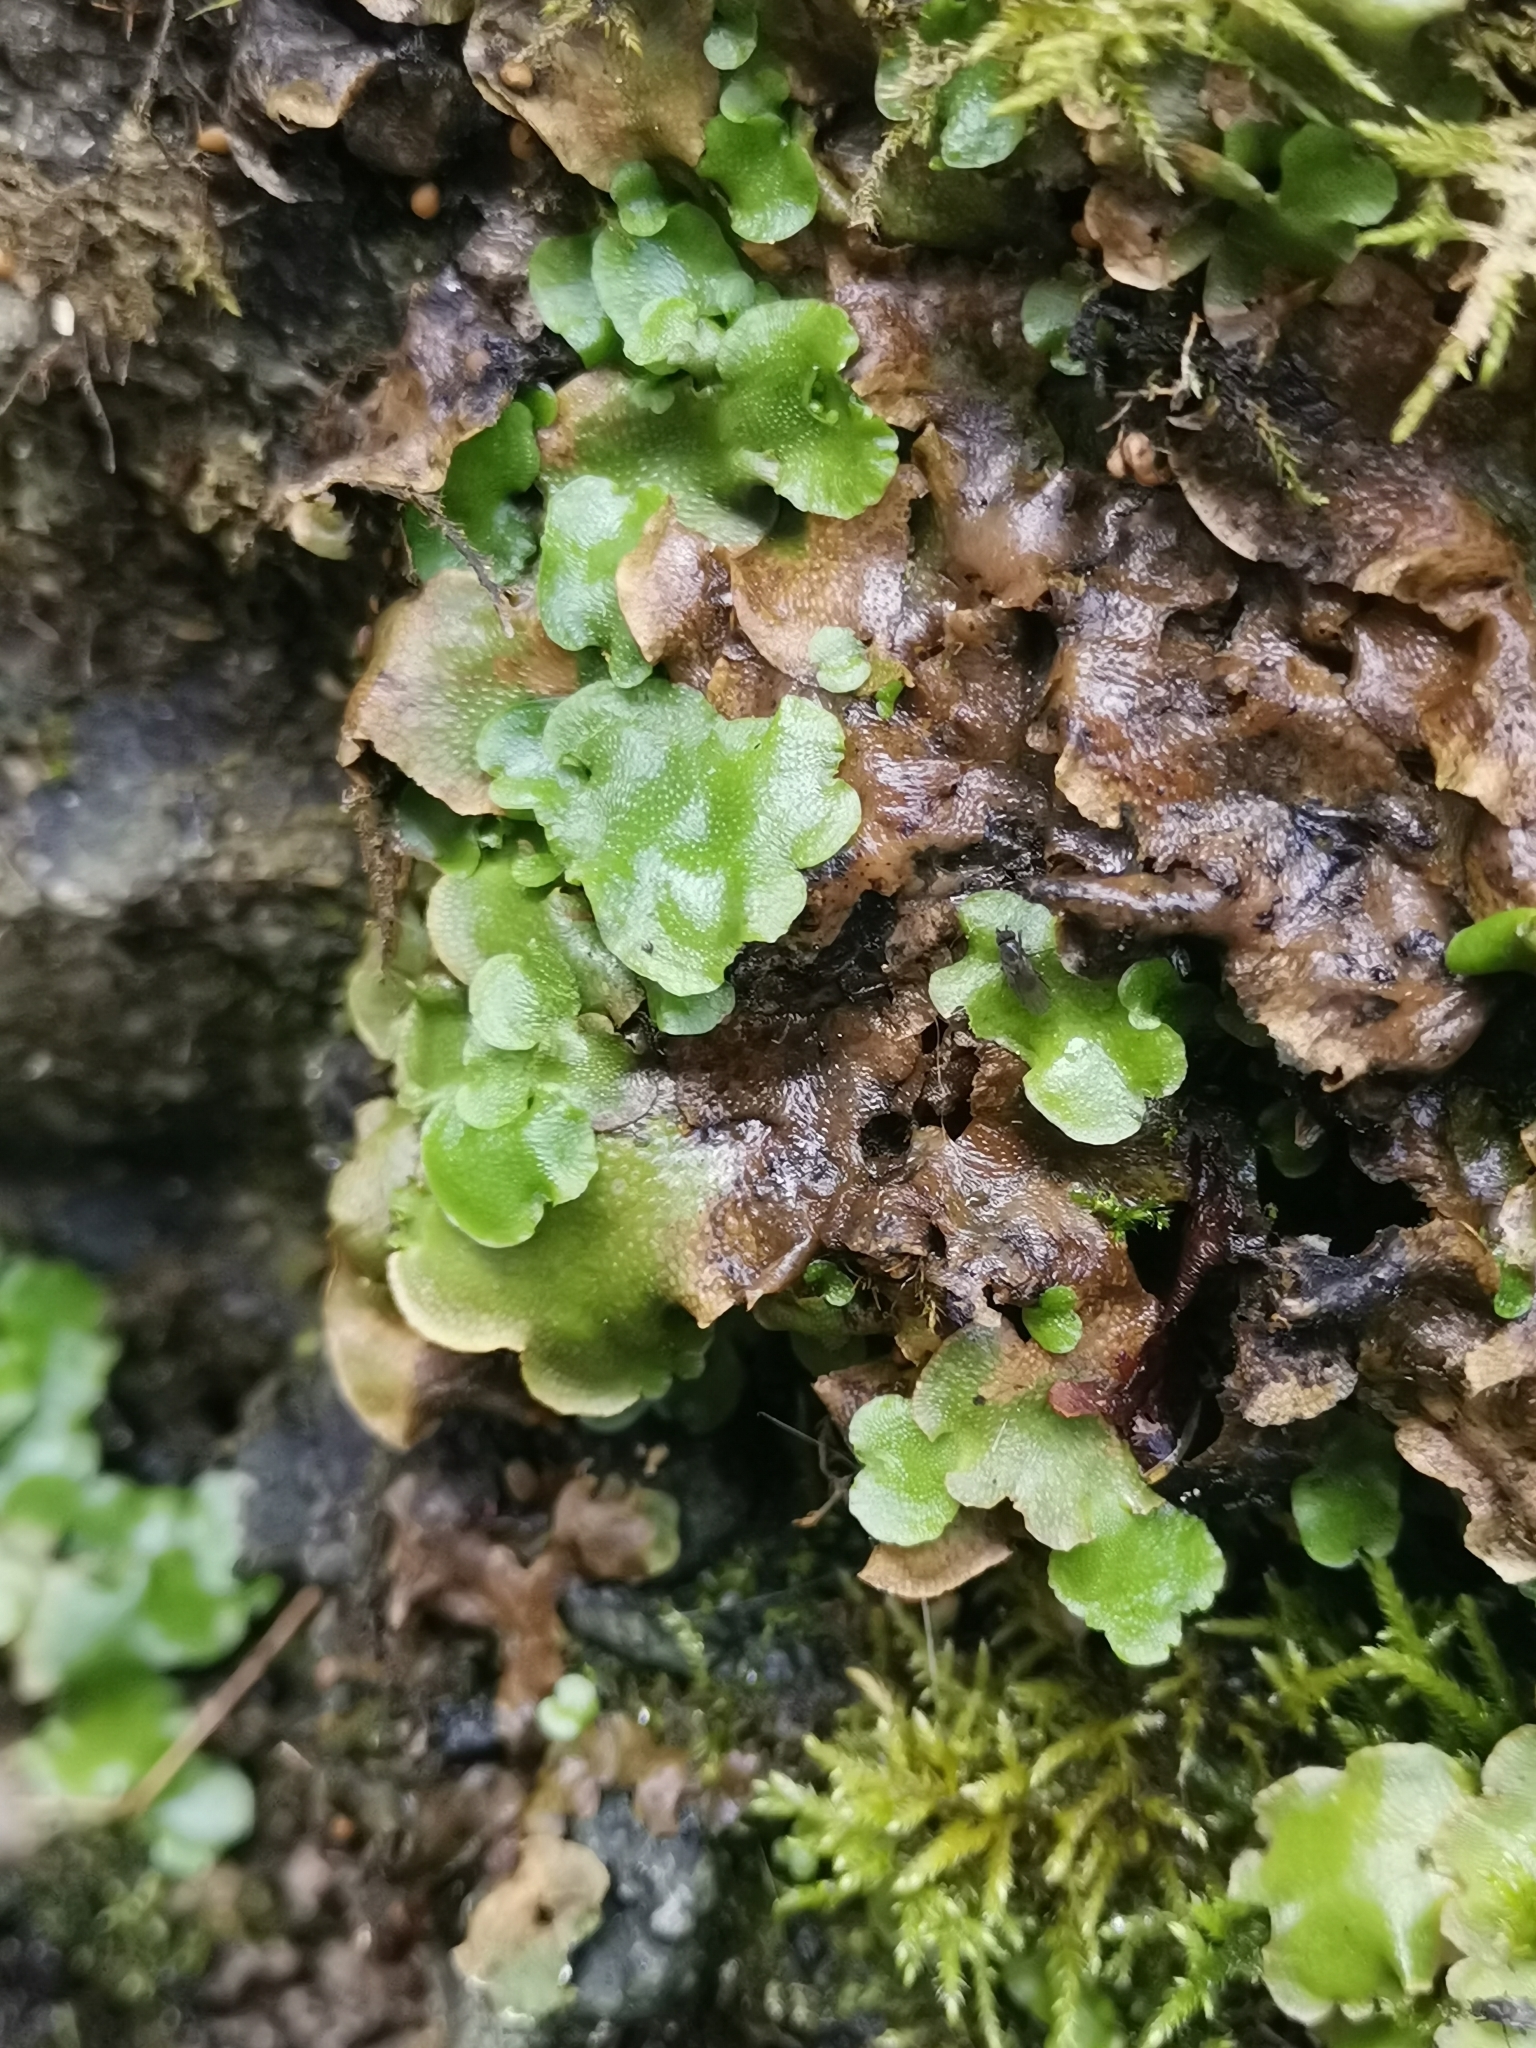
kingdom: Plantae
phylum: Marchantiophyta
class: Marchantiopsida
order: Lunulariales
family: Lunulariaceae
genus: Lunularia
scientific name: Lunularia cruciata
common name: Crescent-cup liverwort
